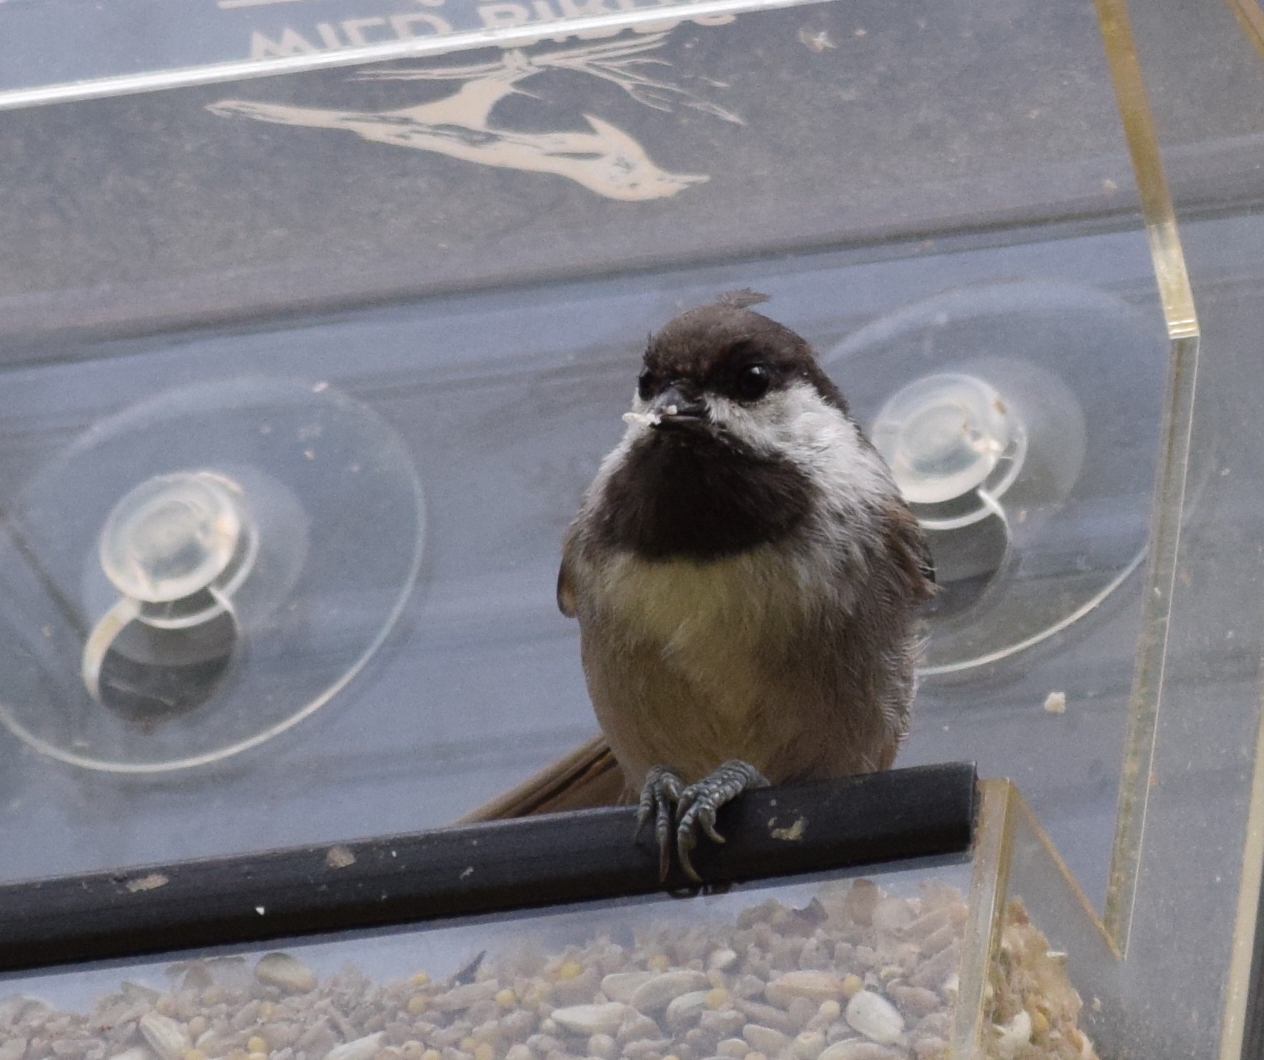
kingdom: Animalia
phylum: Chordata
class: Aves
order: Passeriformes
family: Paridae
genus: Poecile
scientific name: Poecile rufescens
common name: Chestnut-backed chickadee
